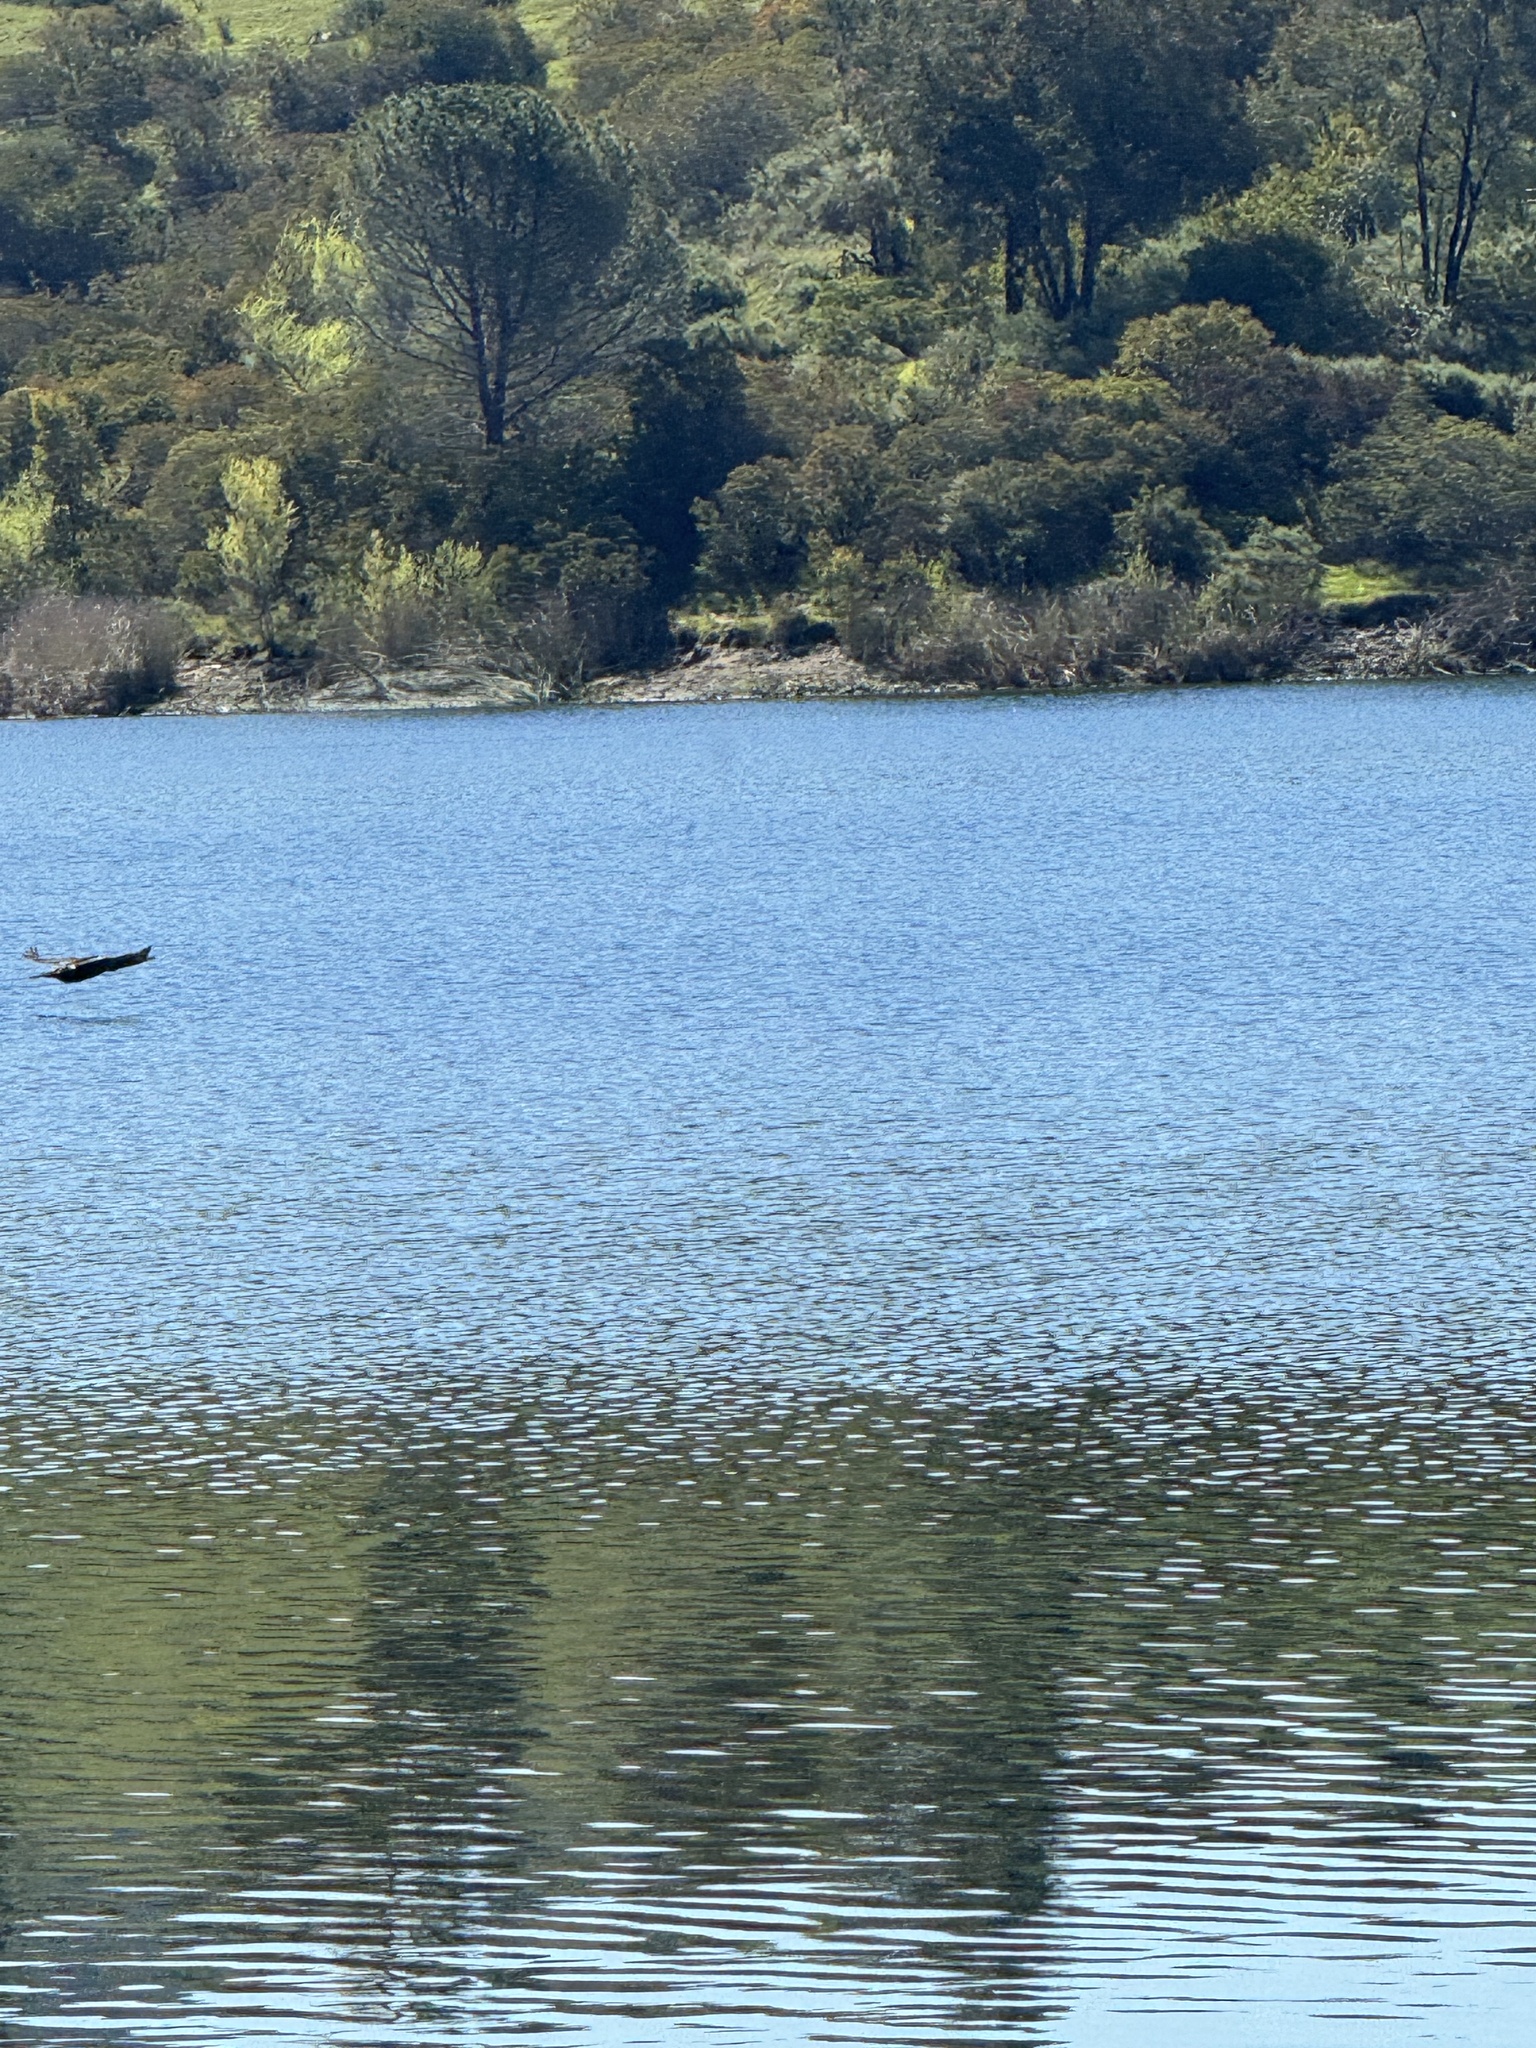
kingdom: Animalia
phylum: Chordata
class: Aves
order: Suliformes
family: Phalacrocoracidae
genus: Phalacrocorax
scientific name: Phalacrocorax auritus
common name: Double-crested cormorant
